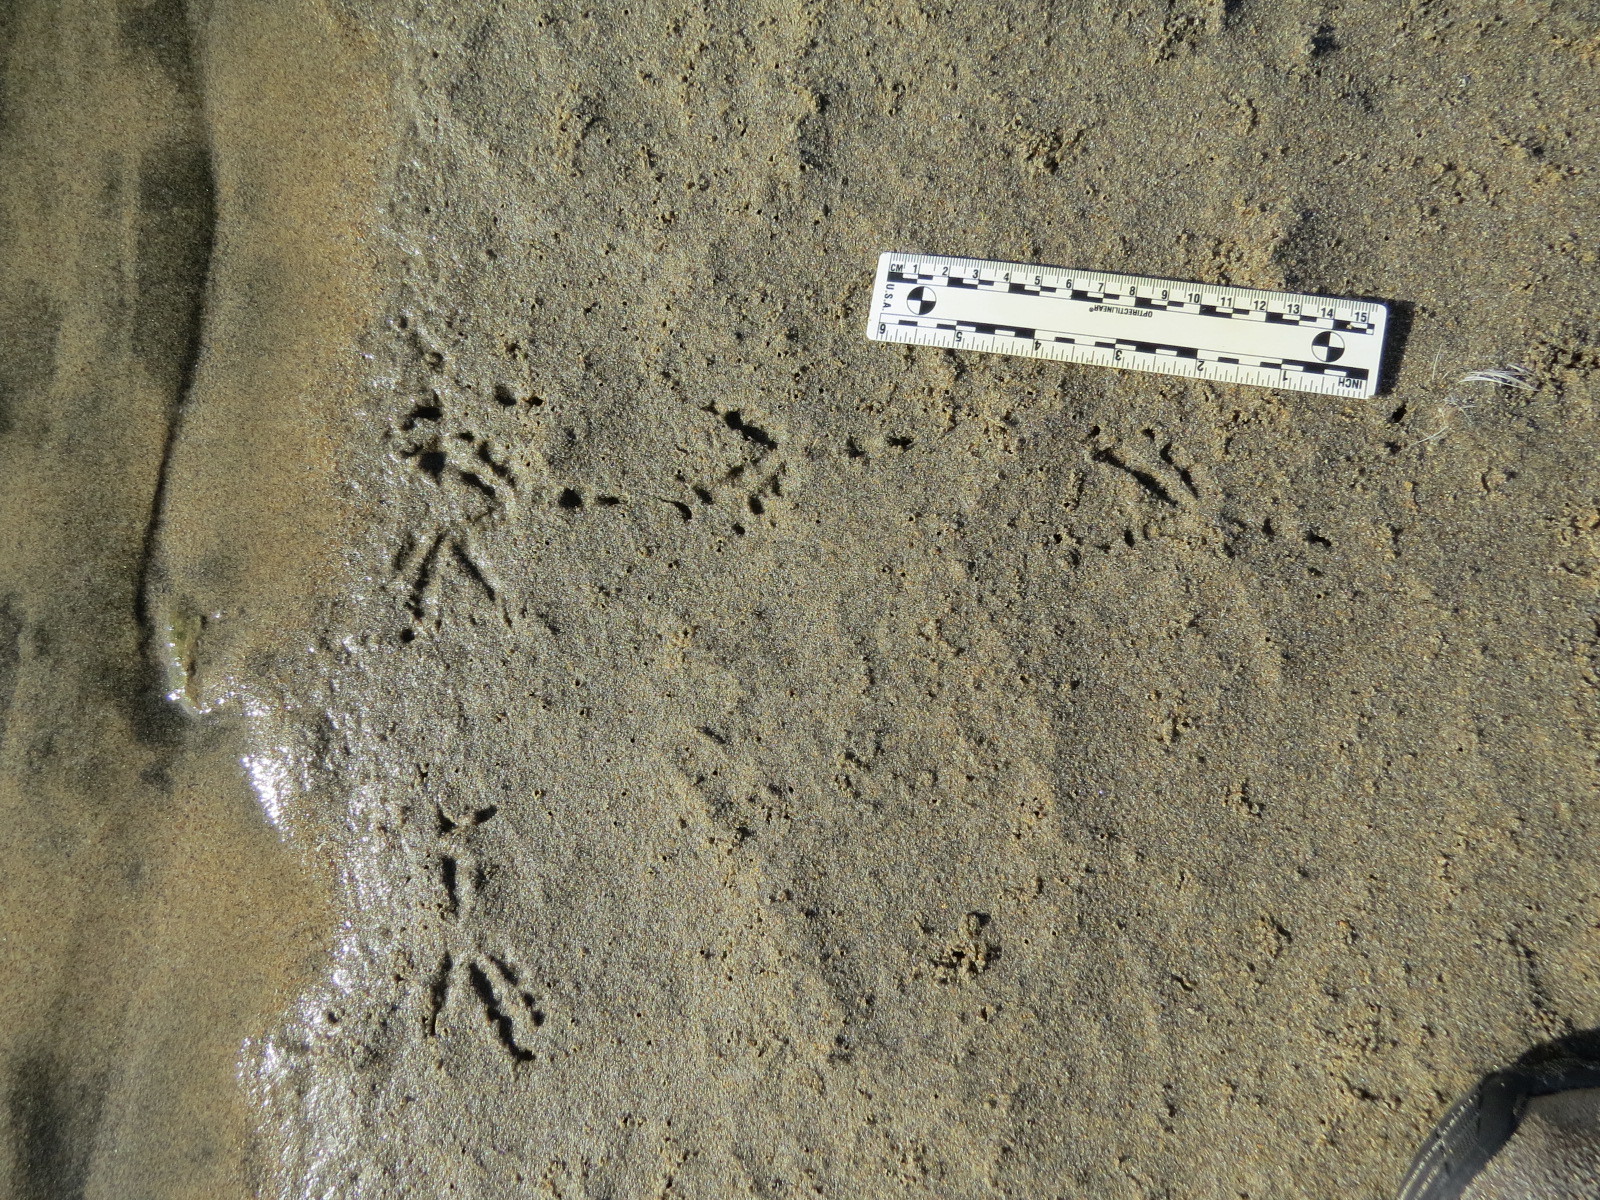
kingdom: Animalia
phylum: Chordata
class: Aves
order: Passeriformes
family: Corvidae
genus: Corvus
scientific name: Corvus brachyrhynchos
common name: American crow
